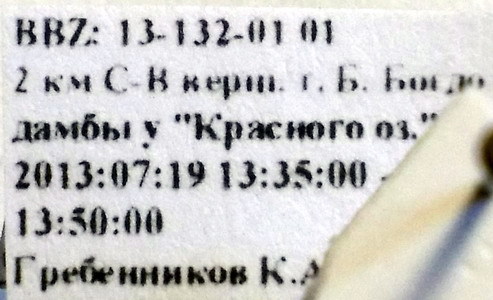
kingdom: Animalia
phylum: Arthropoda
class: Insecta
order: Hymenoptera
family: Formicidae
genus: Camponotus
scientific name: Camponotus piceus
